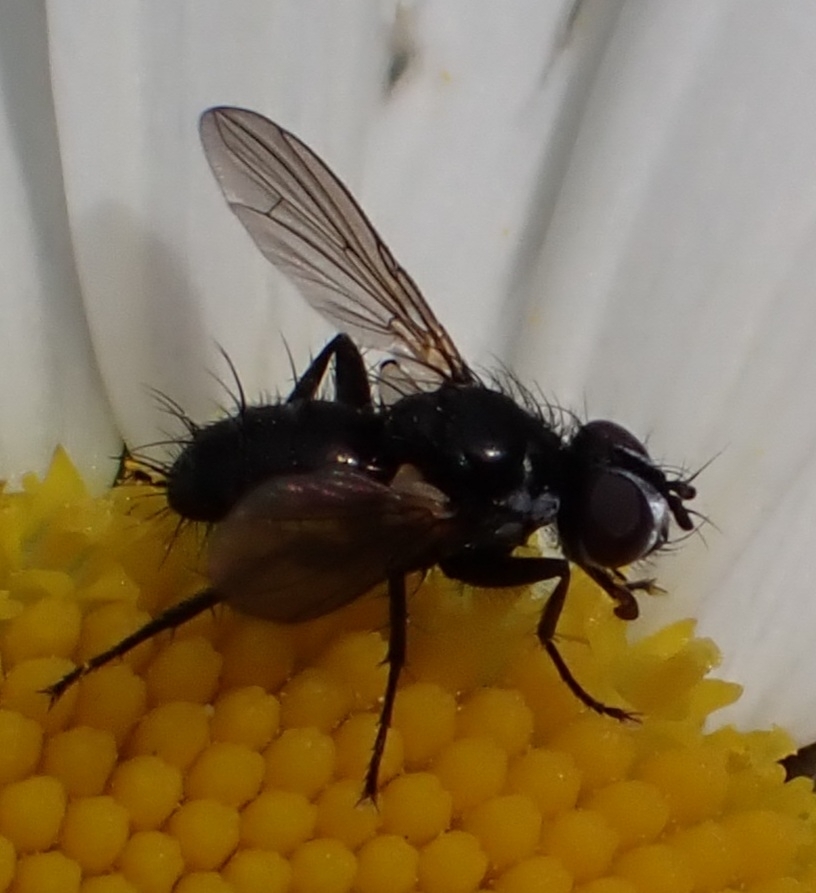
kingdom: Animalia
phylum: Arthropoda
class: Insecta
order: Diptera
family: Tachinidae
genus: Phania
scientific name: Phania funesta
